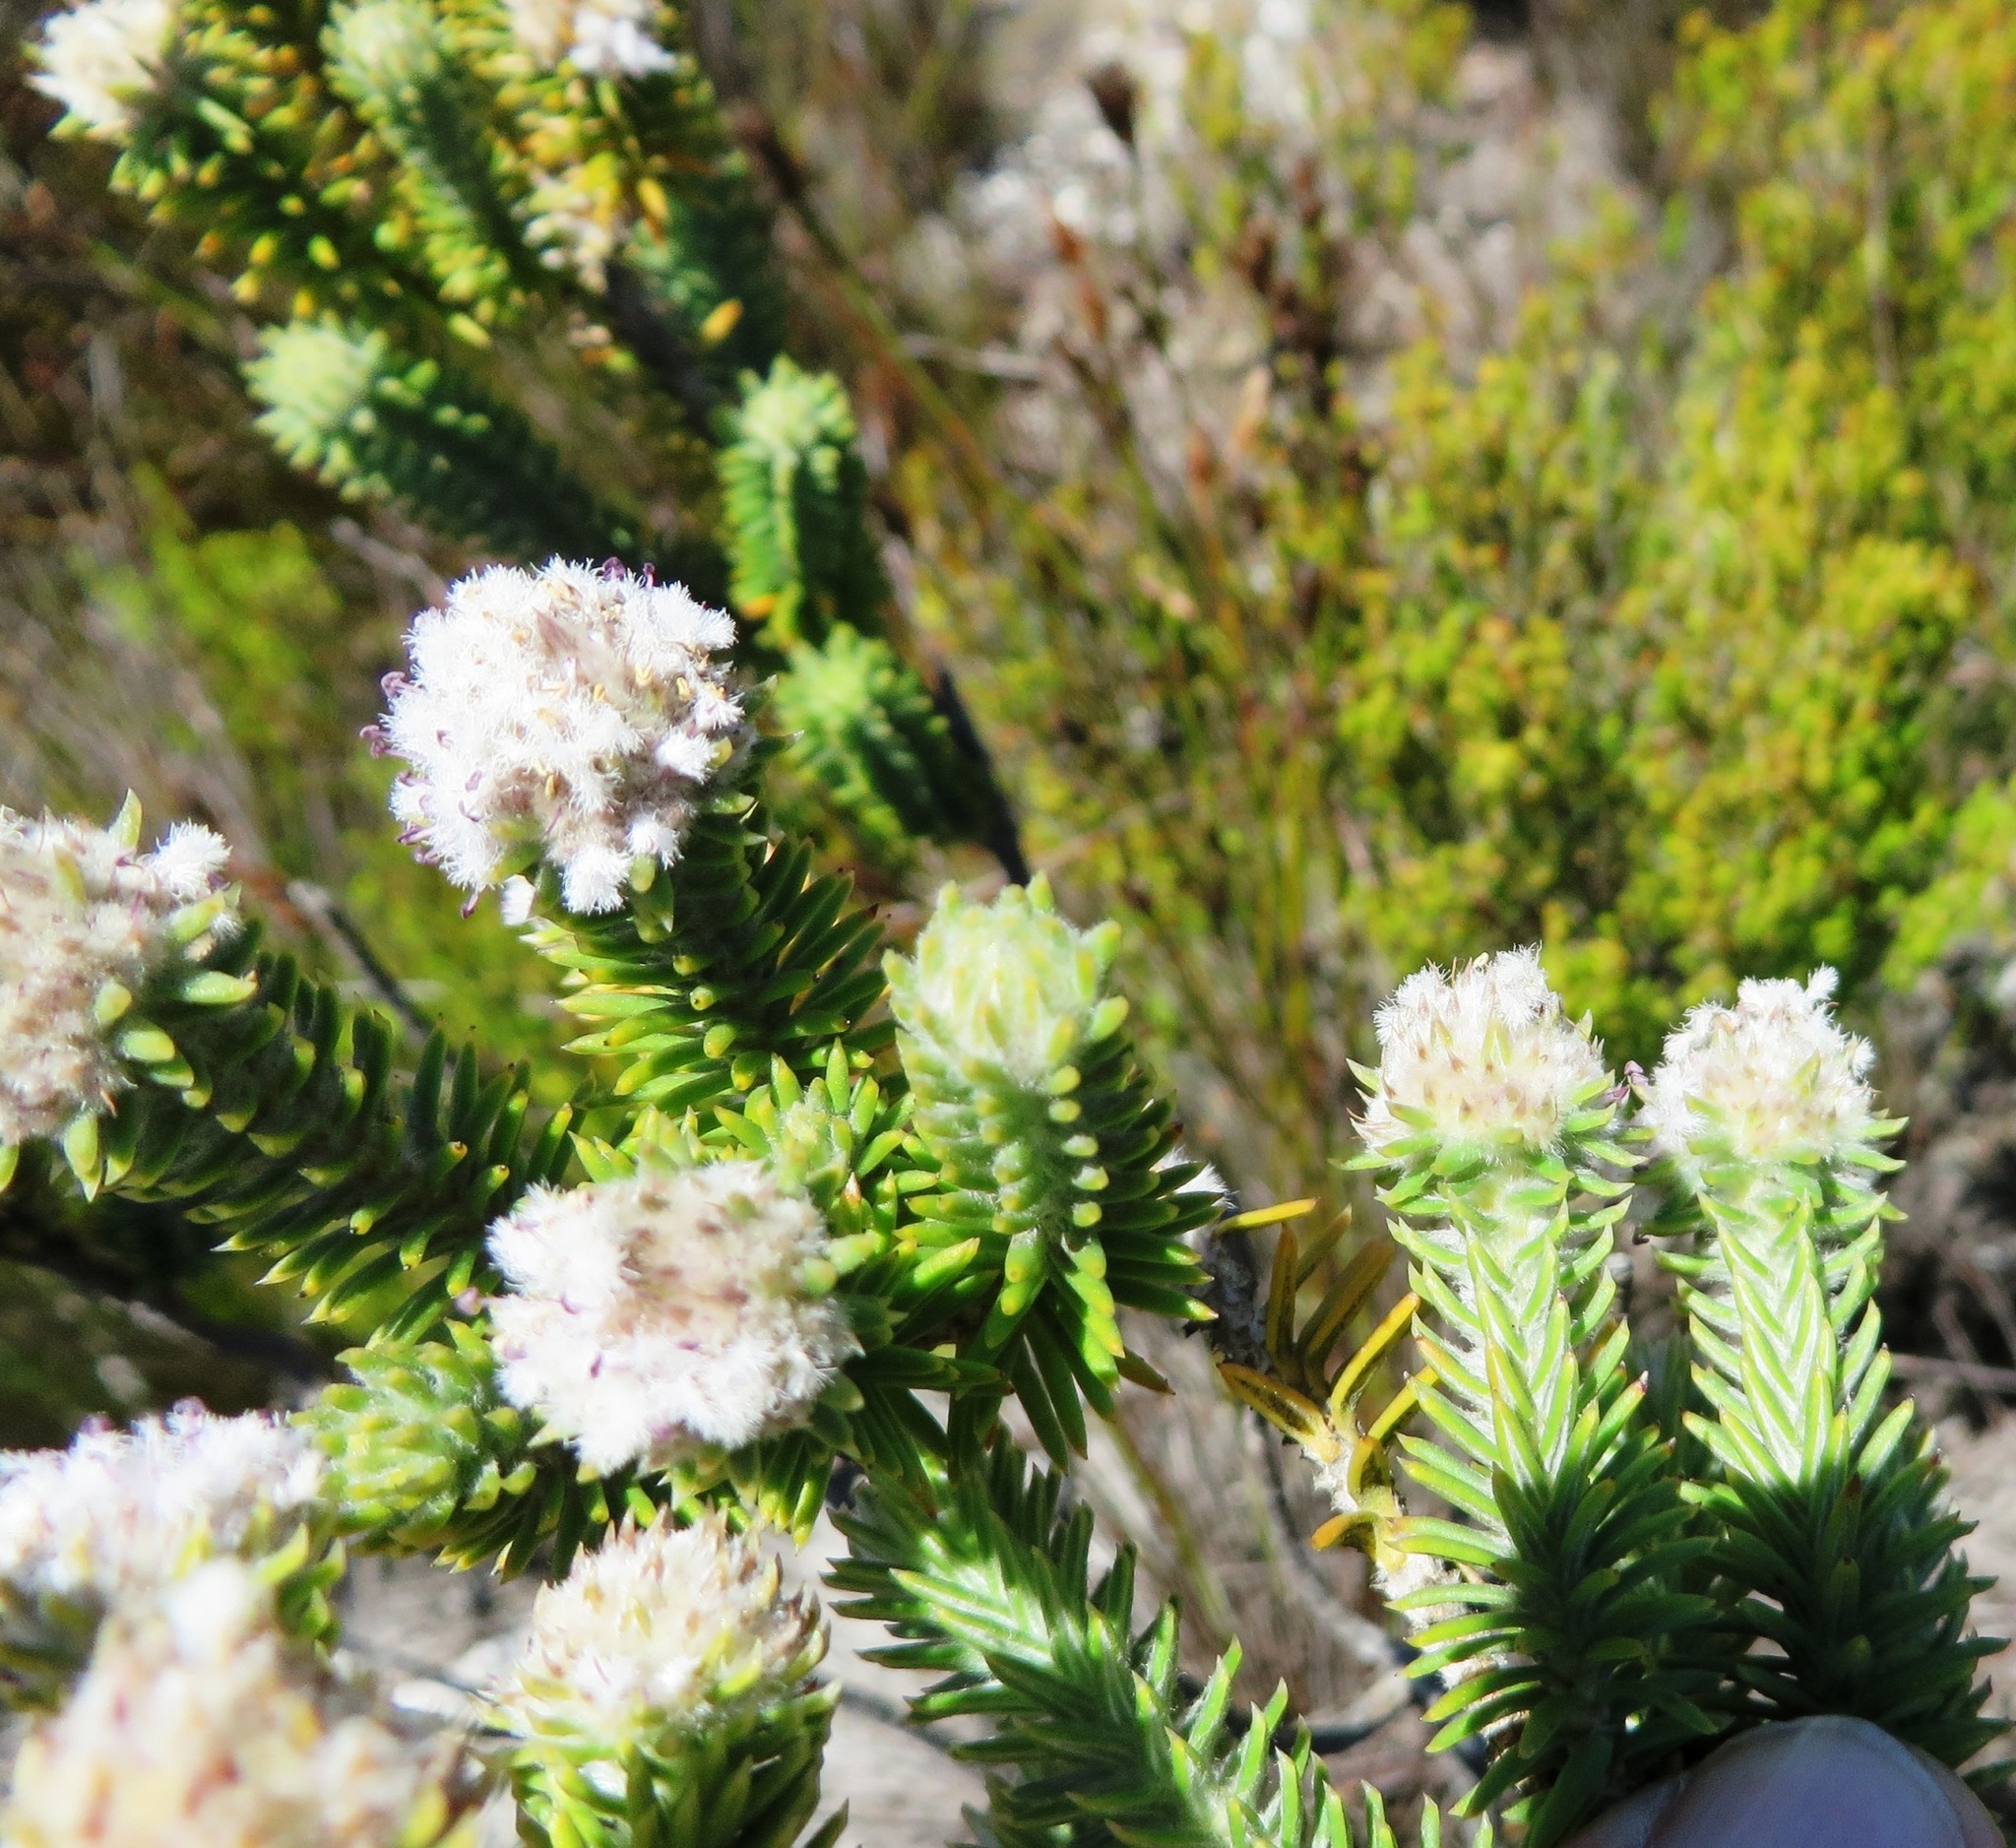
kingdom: Plantae
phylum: Tracheophyta
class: Magnoliopsida
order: Lamiales
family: Stilbaceae
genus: Kogelbergia
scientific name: Kogelbergia verticillata
